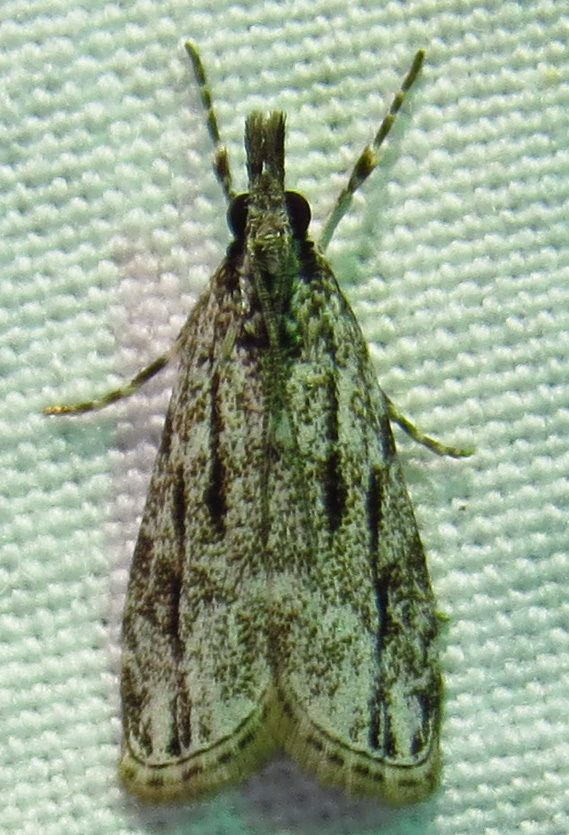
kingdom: Animalia
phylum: Arthropoda
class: Insecta
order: Lepidoptera
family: Crambidae
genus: Eudonia
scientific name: Eudonia strigalis
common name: Striped eudonia moth
